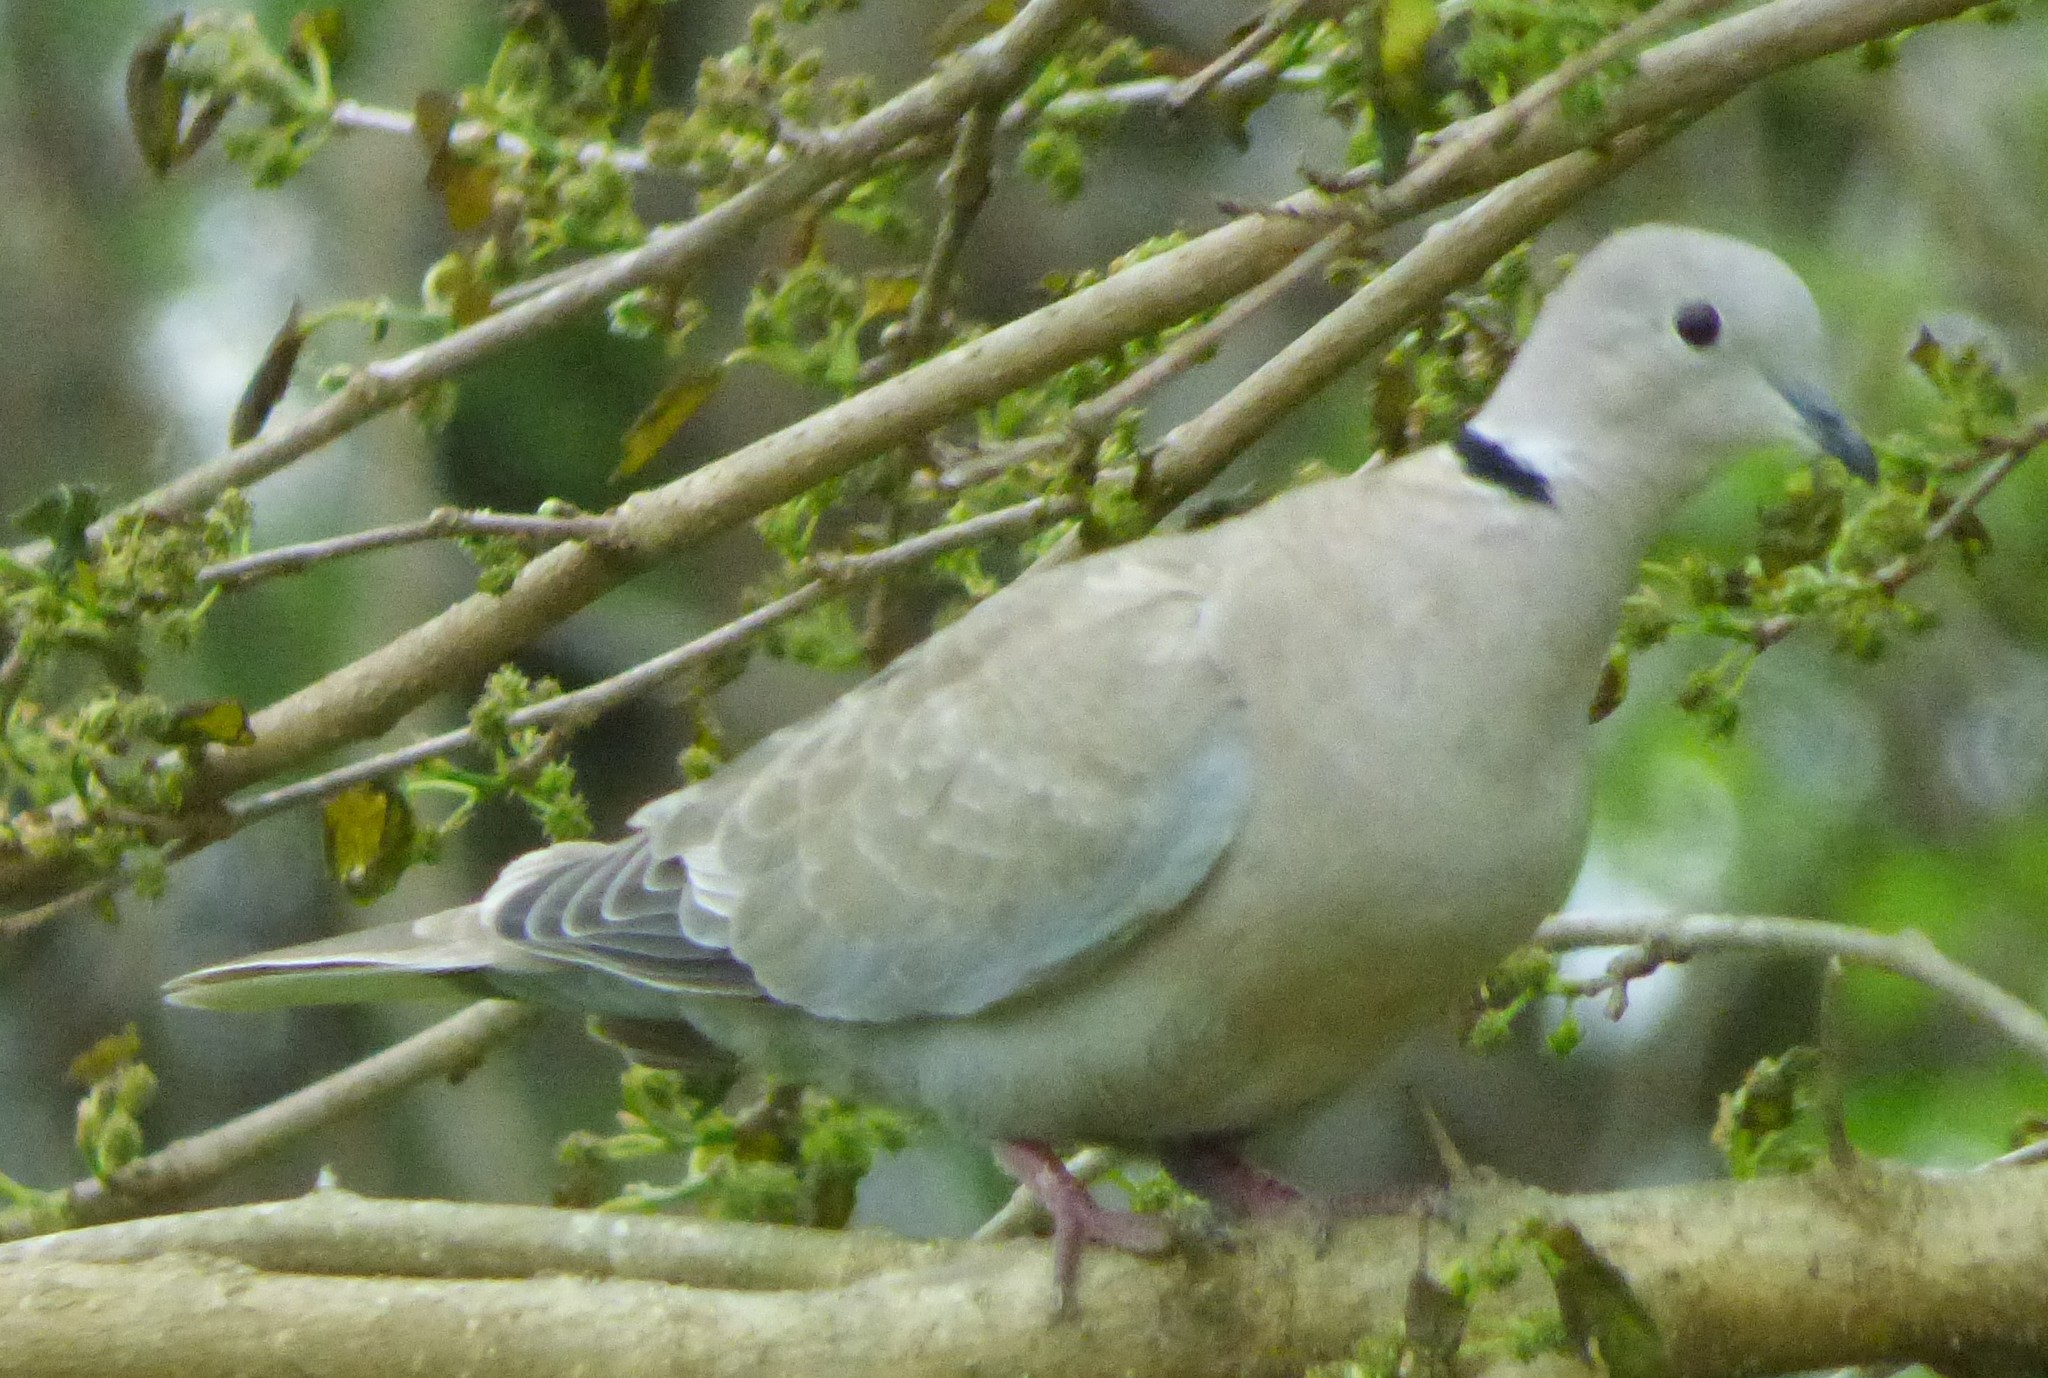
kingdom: Animalia
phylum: Chordata
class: Aves
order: Columbiformes
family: Columbidae
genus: Streptopelia
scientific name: Streptopelia decaocto
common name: Eurasian collared dove
